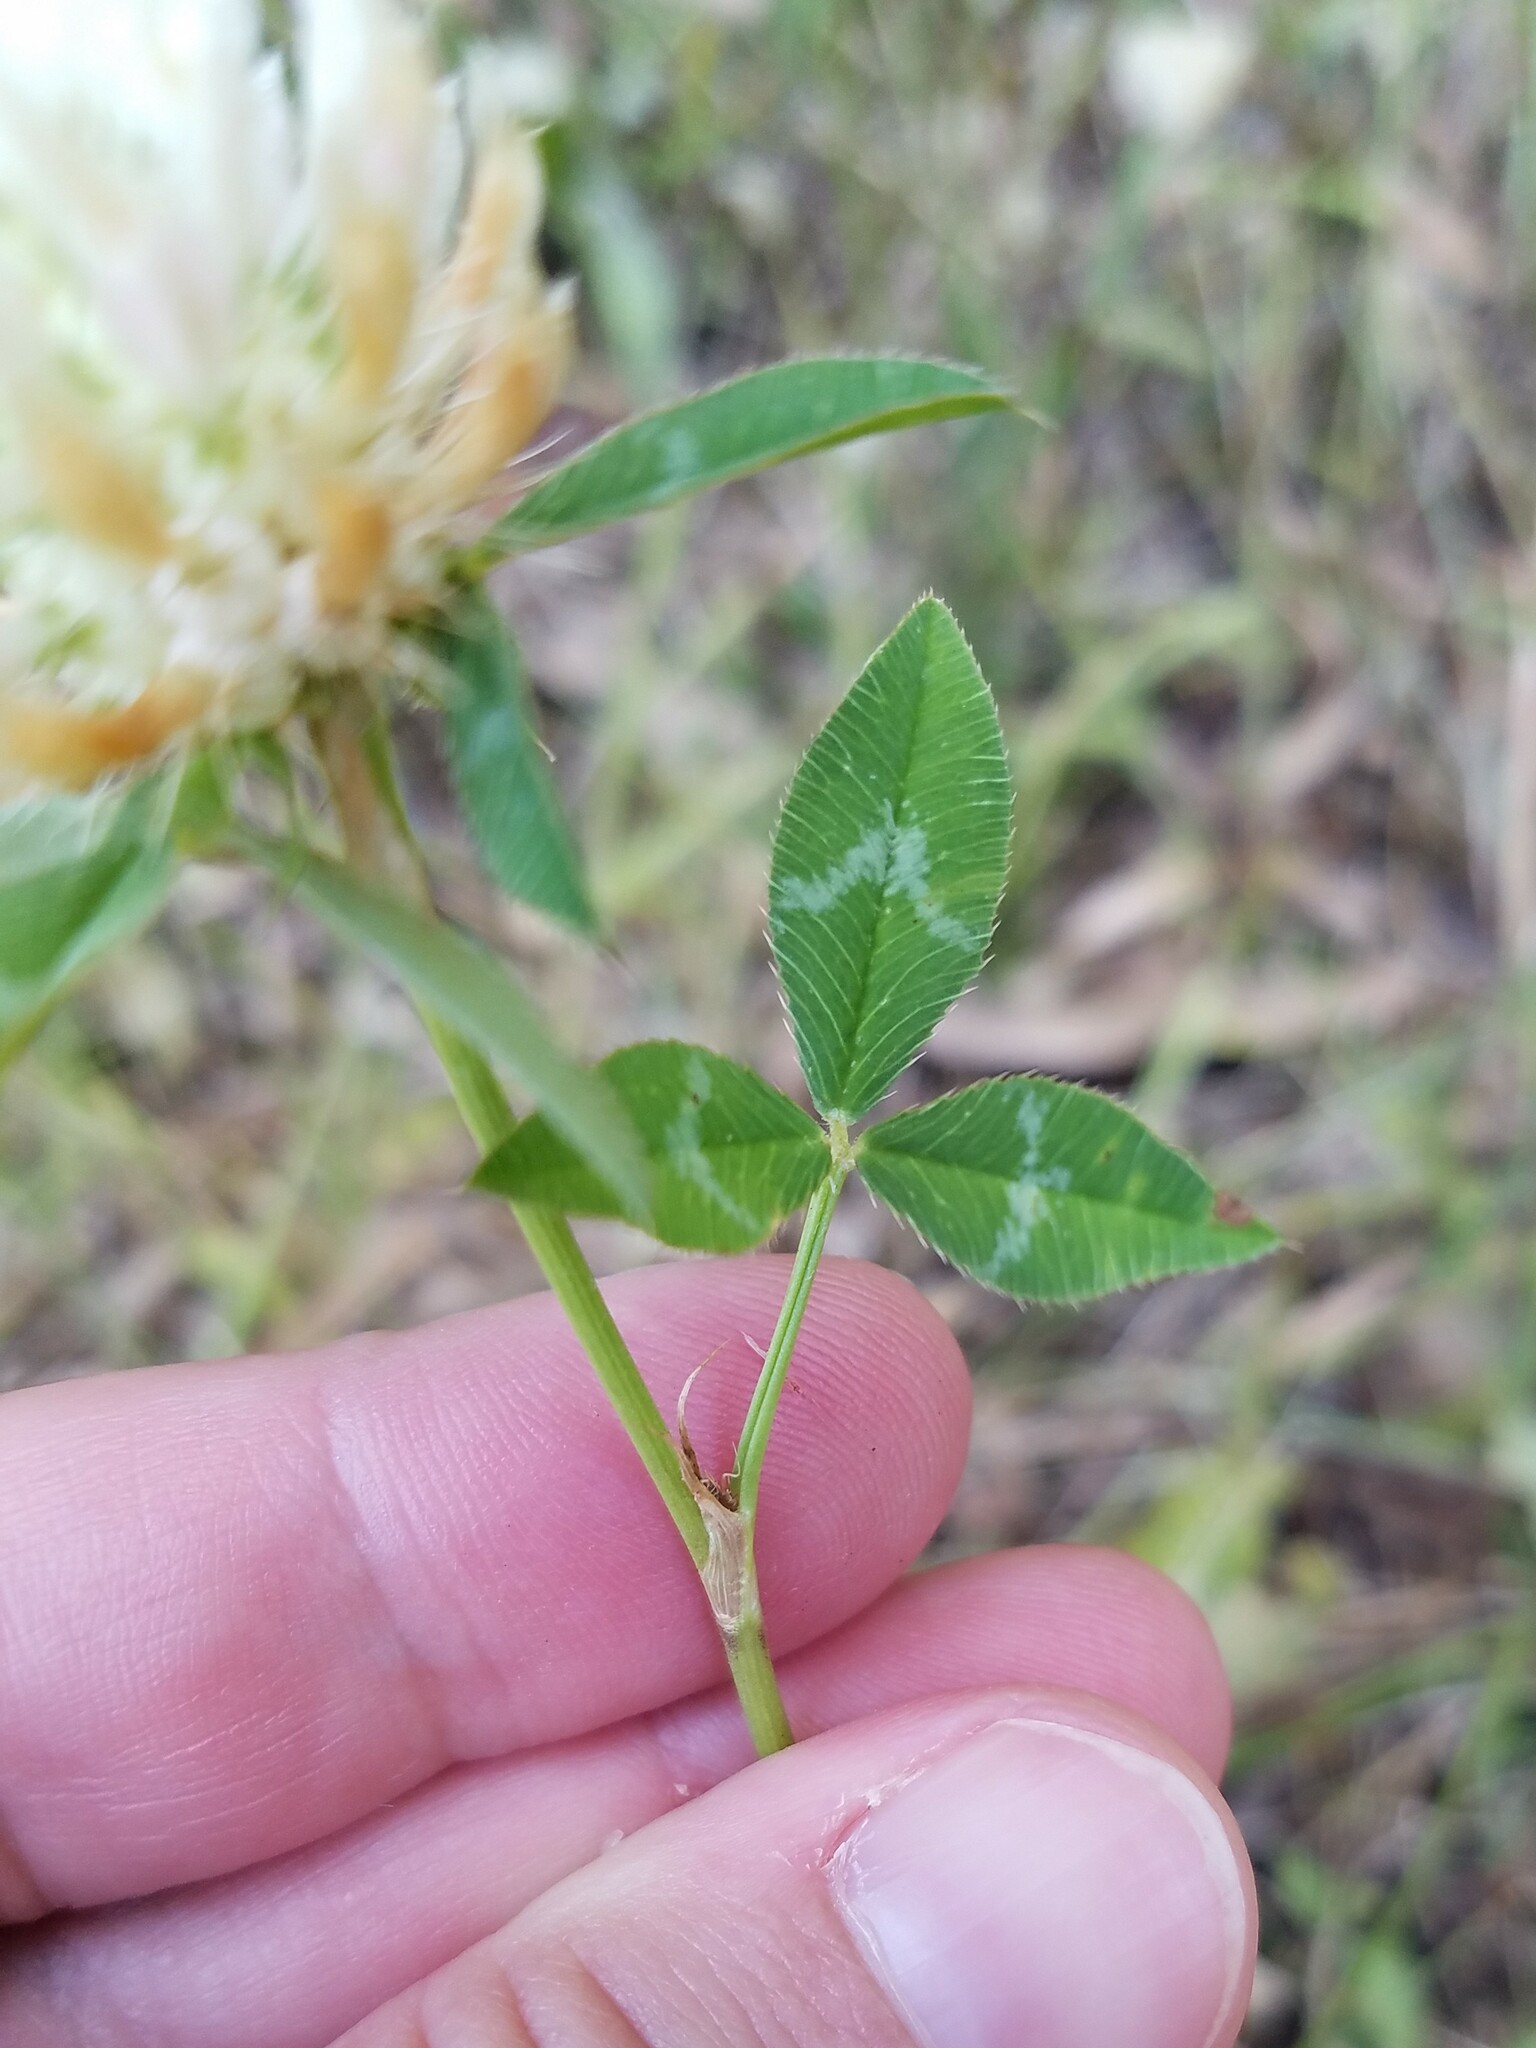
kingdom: Plantae
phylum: Tracheophyta
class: Magnoliopsida
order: Fabales
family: Fabaceae
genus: Trifolium
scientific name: Trifolium vesiculosum
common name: Arrowleaf clover
